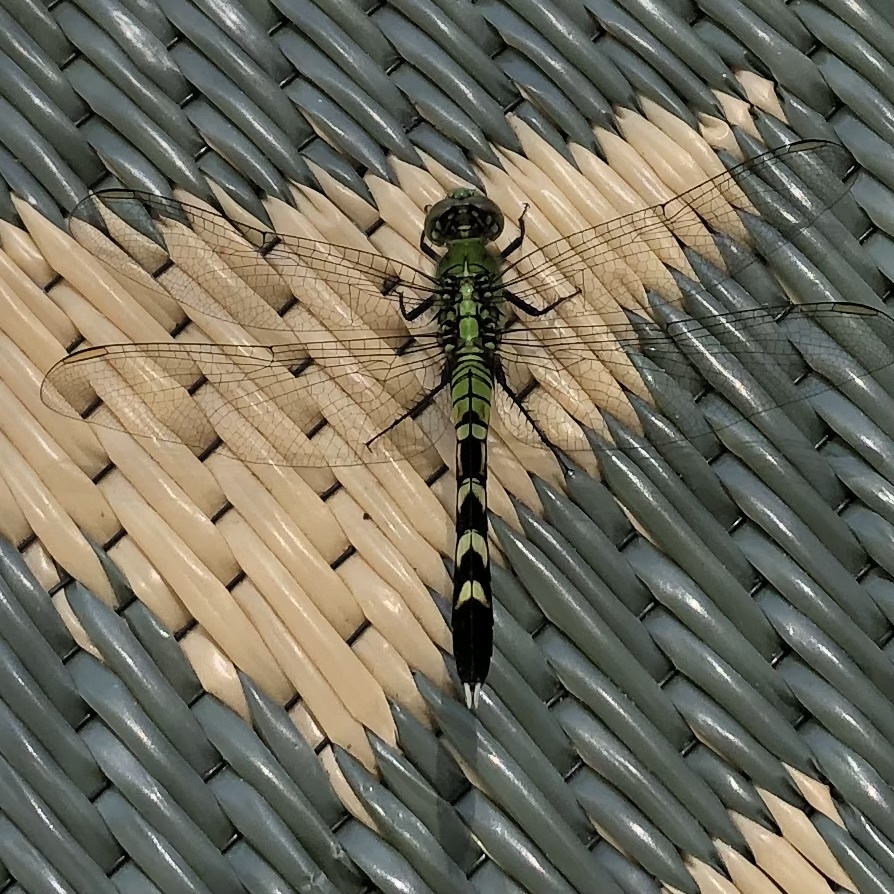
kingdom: Animalia
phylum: Arthropoda
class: Insecta
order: Odonata
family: Libellulidae
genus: Erythemis
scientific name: Erythemis simplicicollis
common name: Eastern pondhawk
